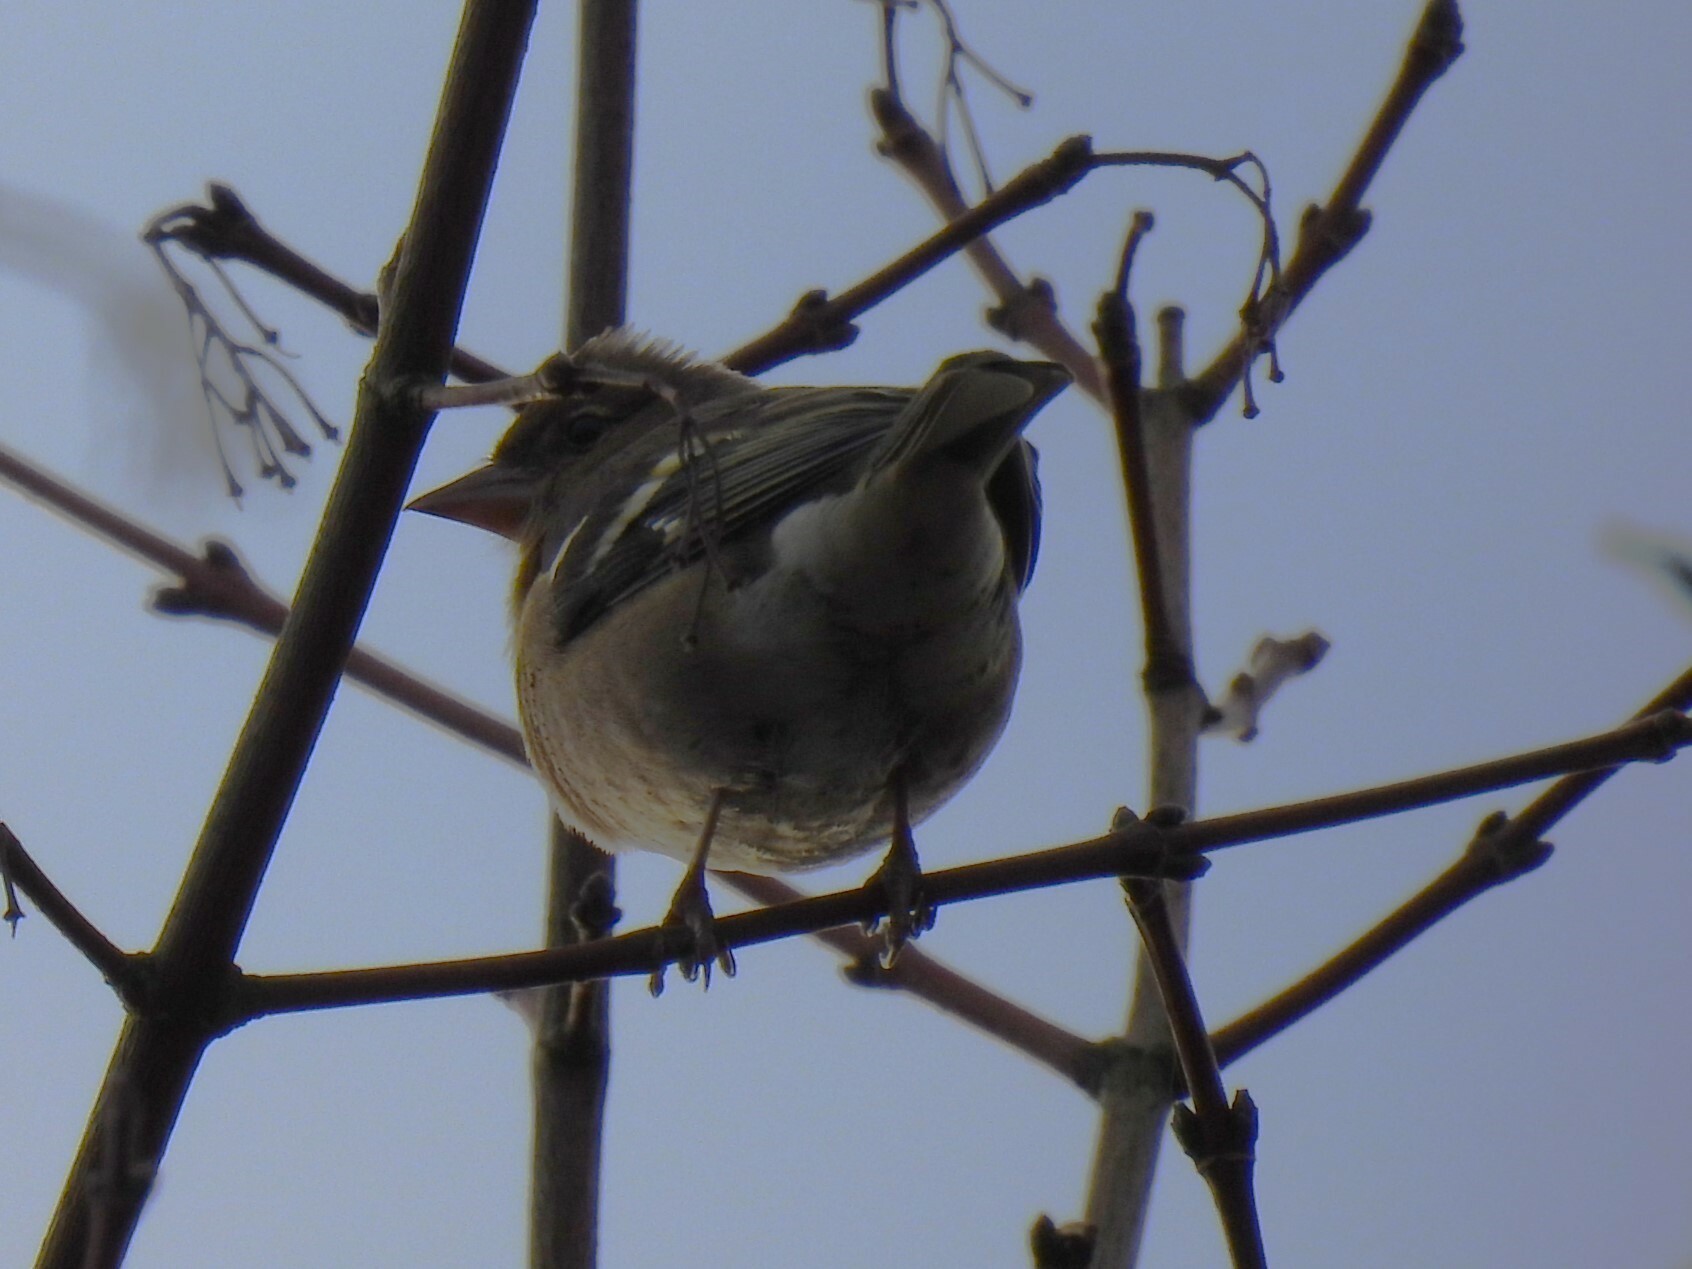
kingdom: Animalia
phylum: Chordata
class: Aves
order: Passeriformes
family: Fringillidae
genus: Fringilla
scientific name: Fringilla coelebs
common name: Common chaffinch
